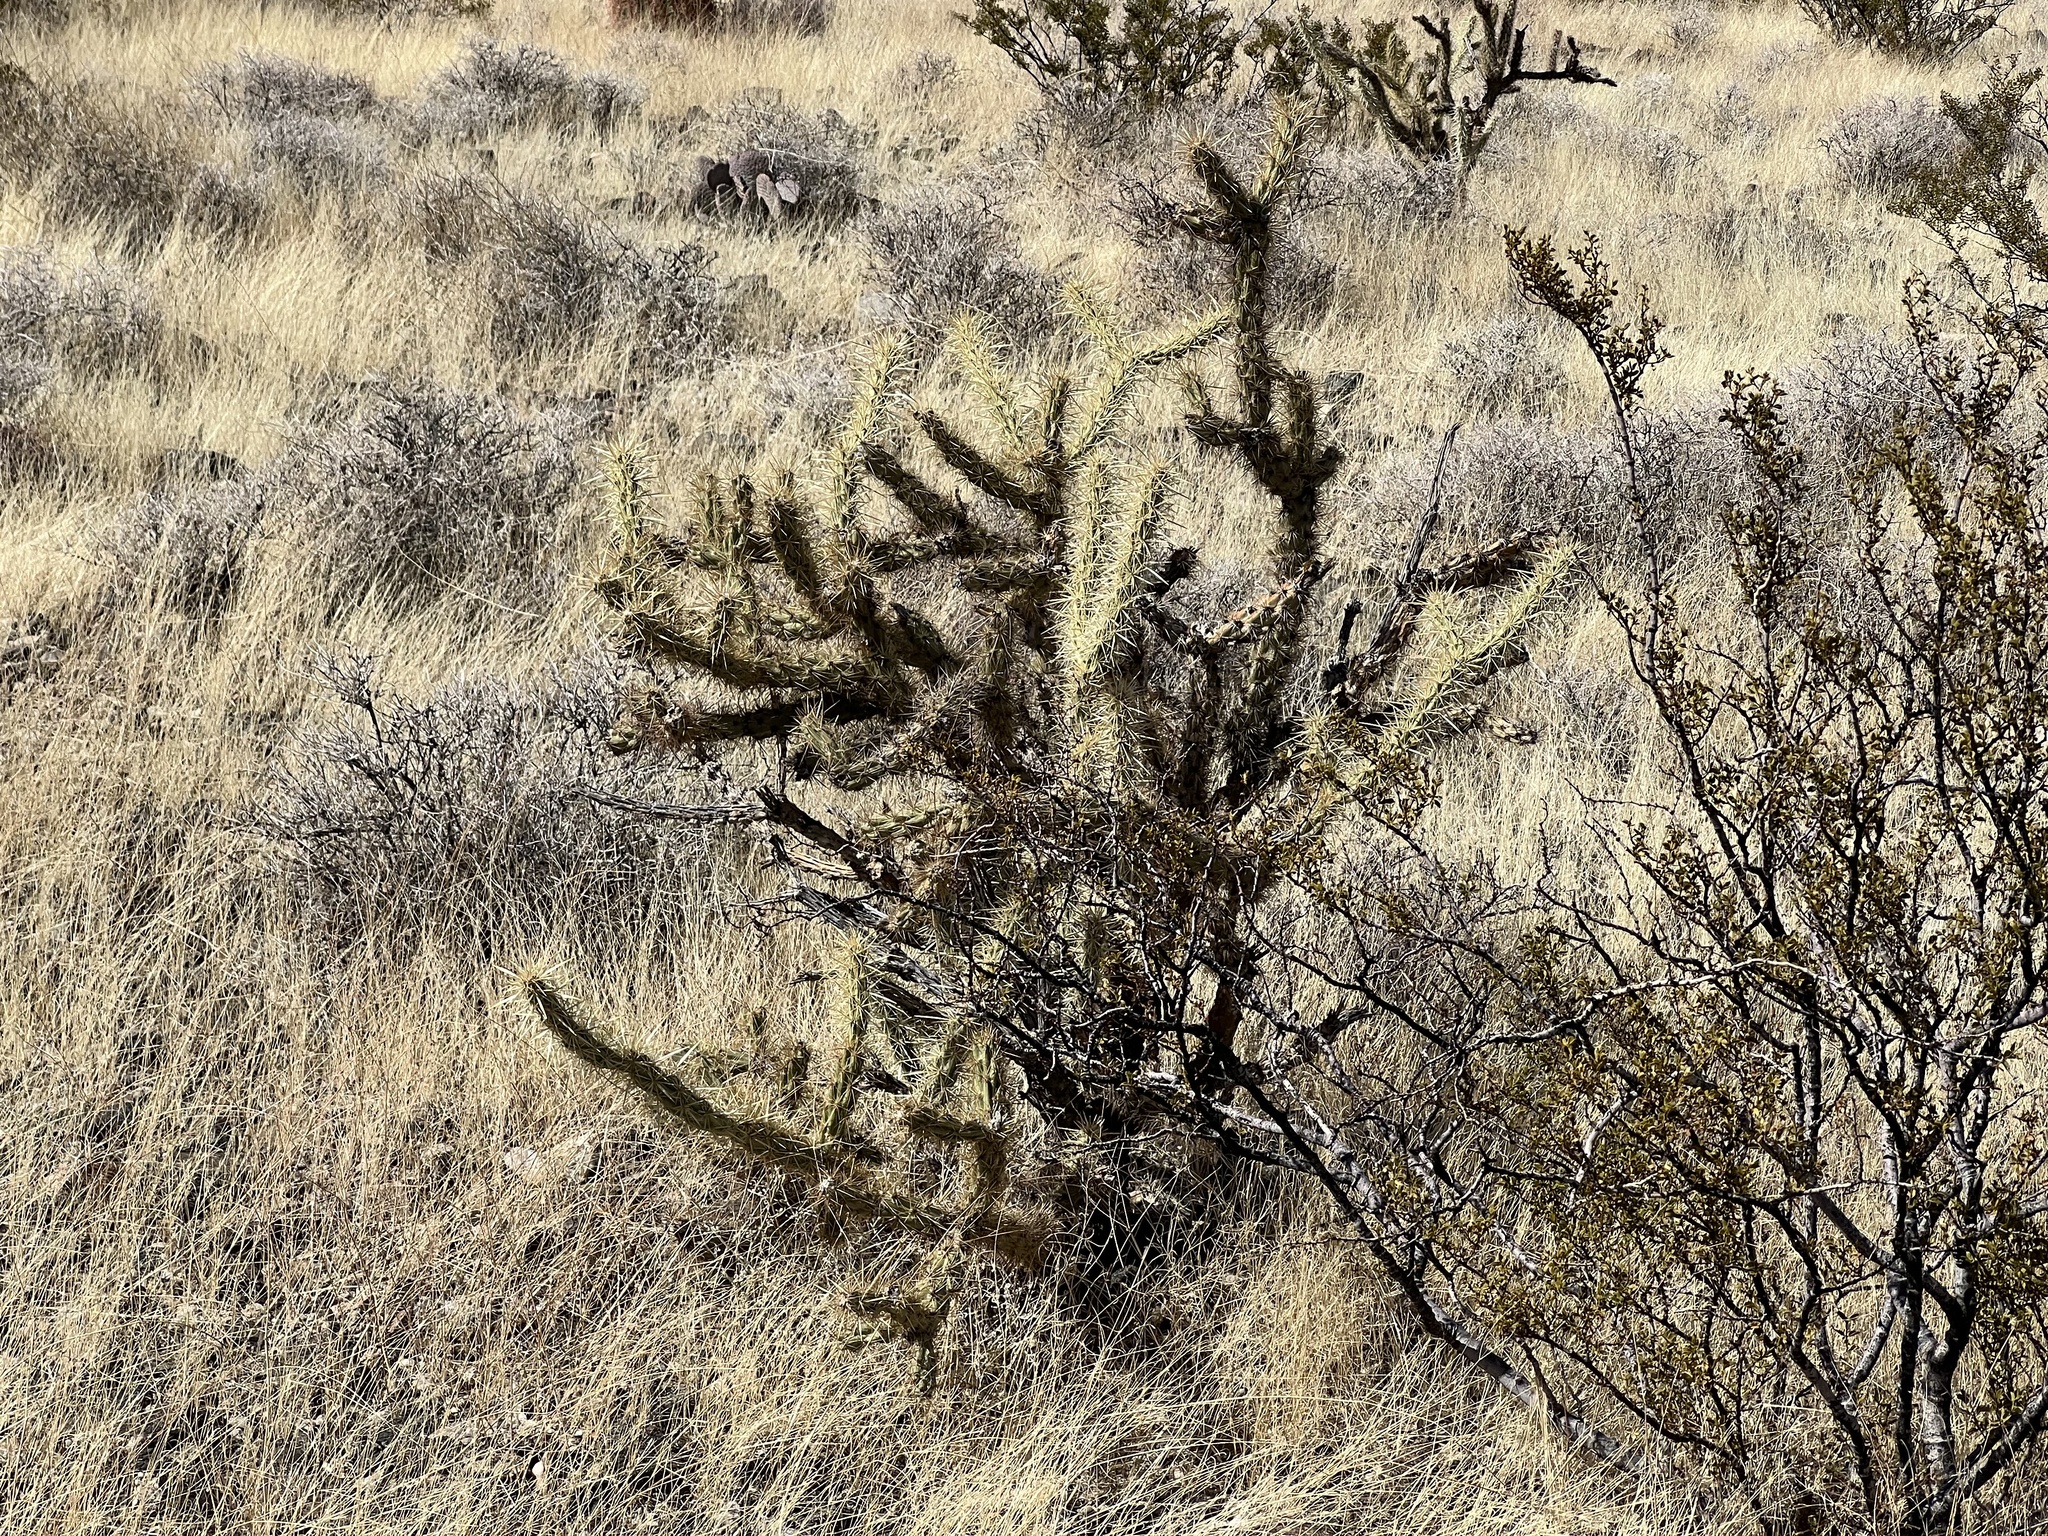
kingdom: Plantae
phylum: Tracheophyta
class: Magnoliopsida
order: Caryophyllales
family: Cactaceae
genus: Cylindropuntia
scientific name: Cylindropuntia acanthocarpa
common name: Buckhorn cholla
